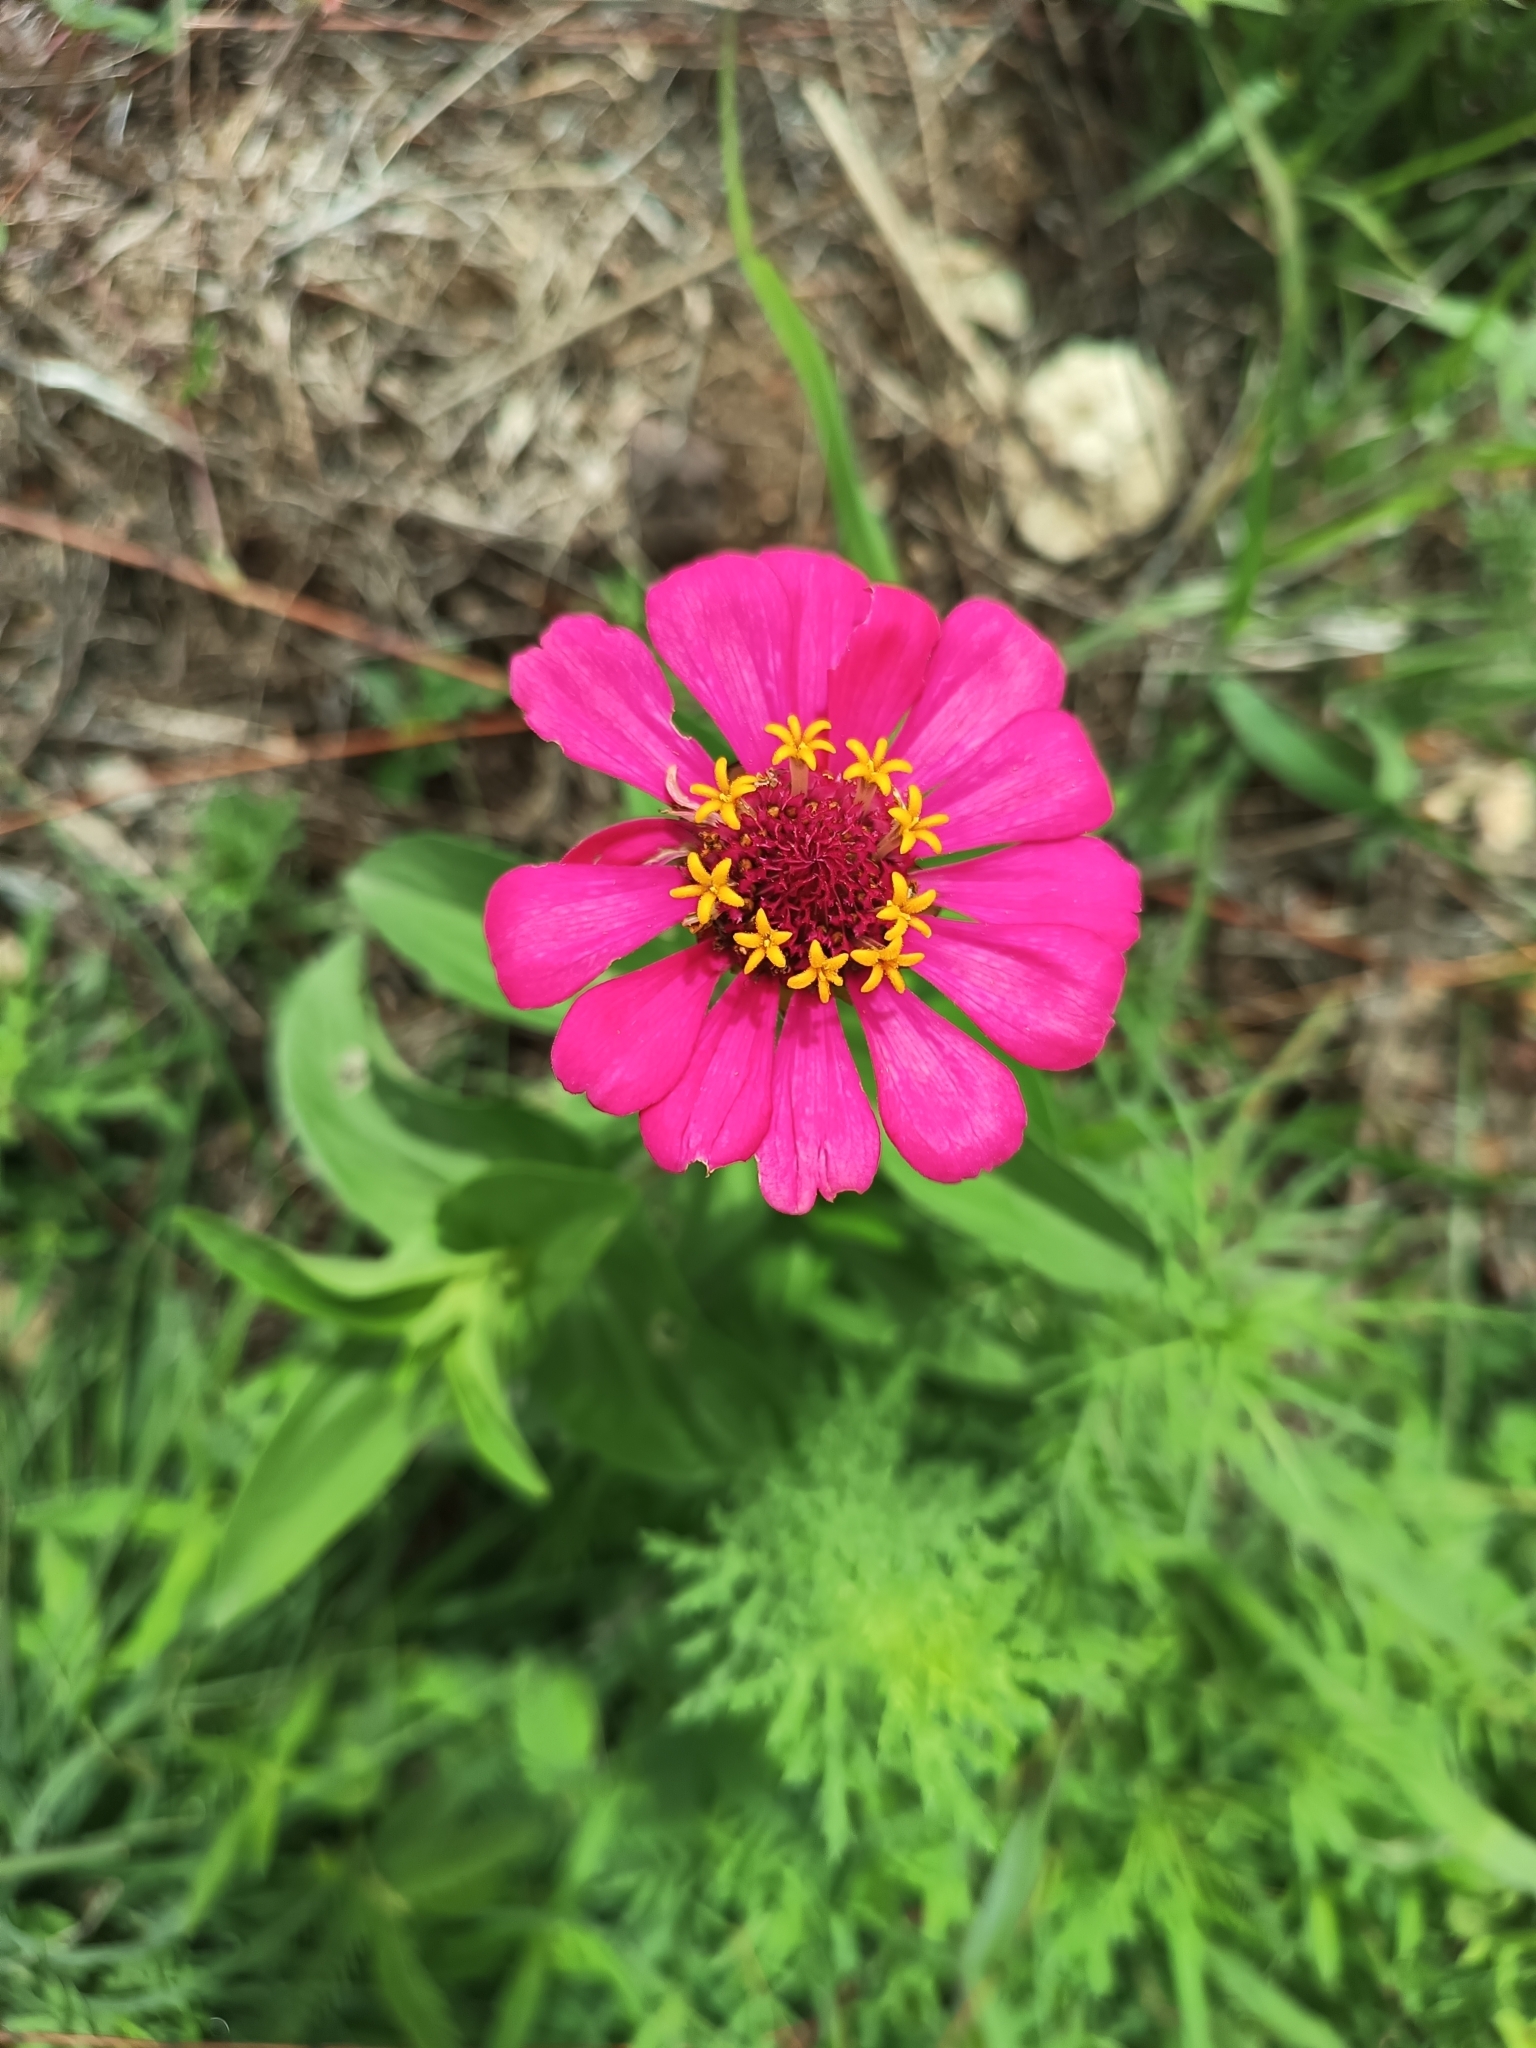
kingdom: Plantae
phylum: Tracheophyta
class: Magnoliopsida
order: Asterales
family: Asteraceae
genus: Zinnia
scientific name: Zinnia elegans
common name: Youth-and-age
